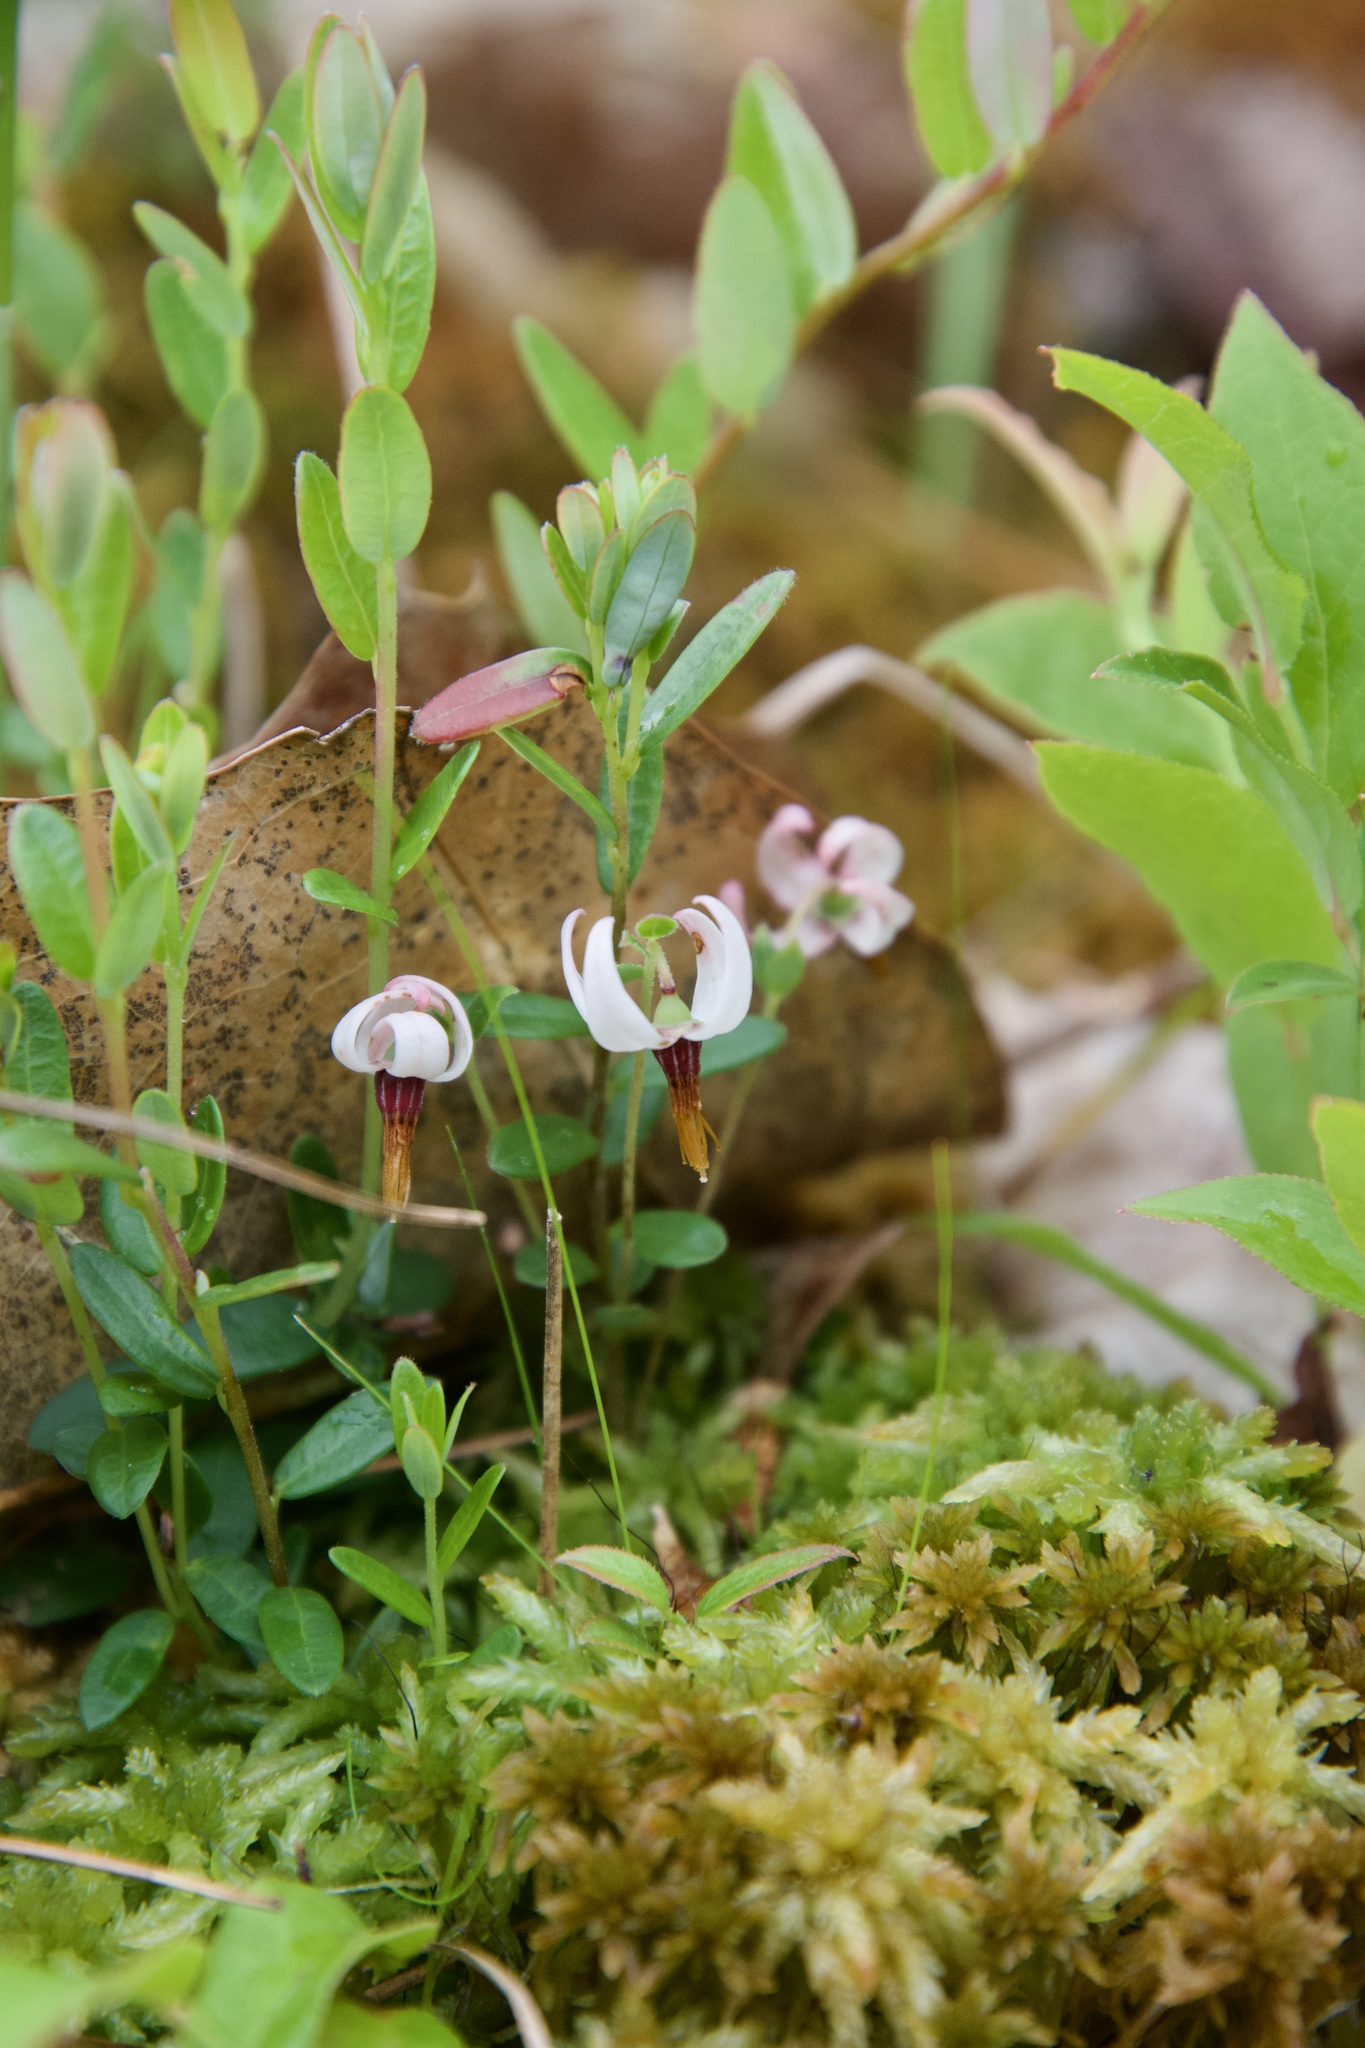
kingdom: Plantae
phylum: Tracheophyta
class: Magnoliopsida
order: Ericales
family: Ericaceae
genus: Vaccinium
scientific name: Vaccinium macrocarpon
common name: American cranberry
